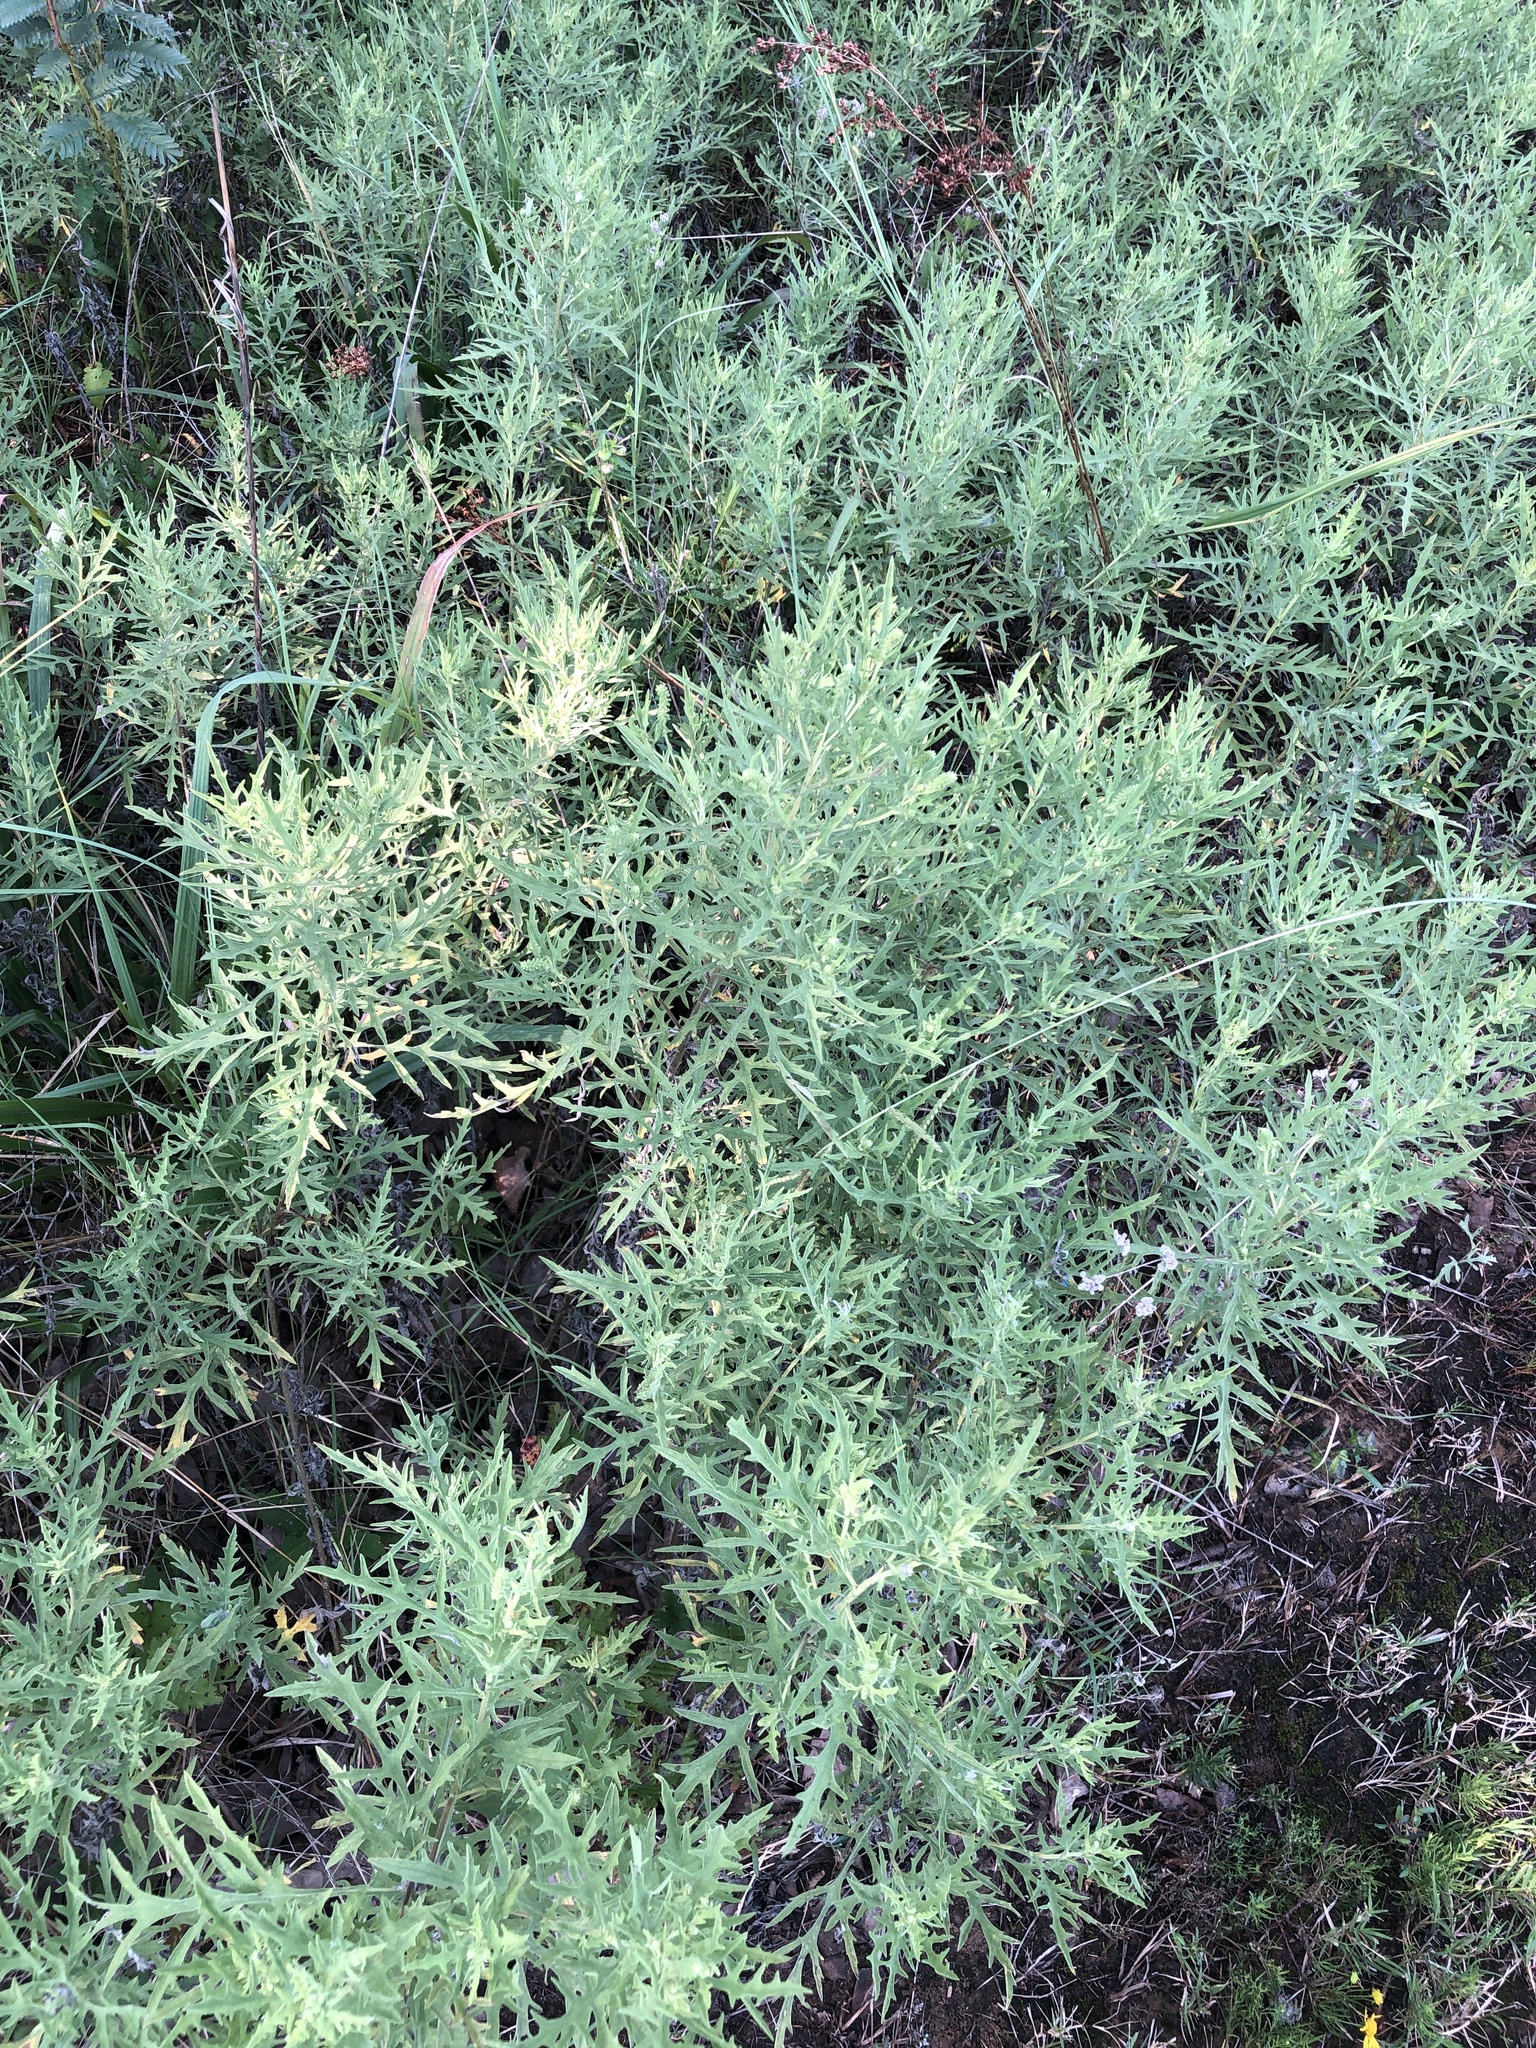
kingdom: Plantae
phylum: Tracheophyta
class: Magnoliopsida
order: Asterales
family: Asteraceae
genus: Ambrosia
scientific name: Ambrosia psilostachya
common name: Perennial ragweed
